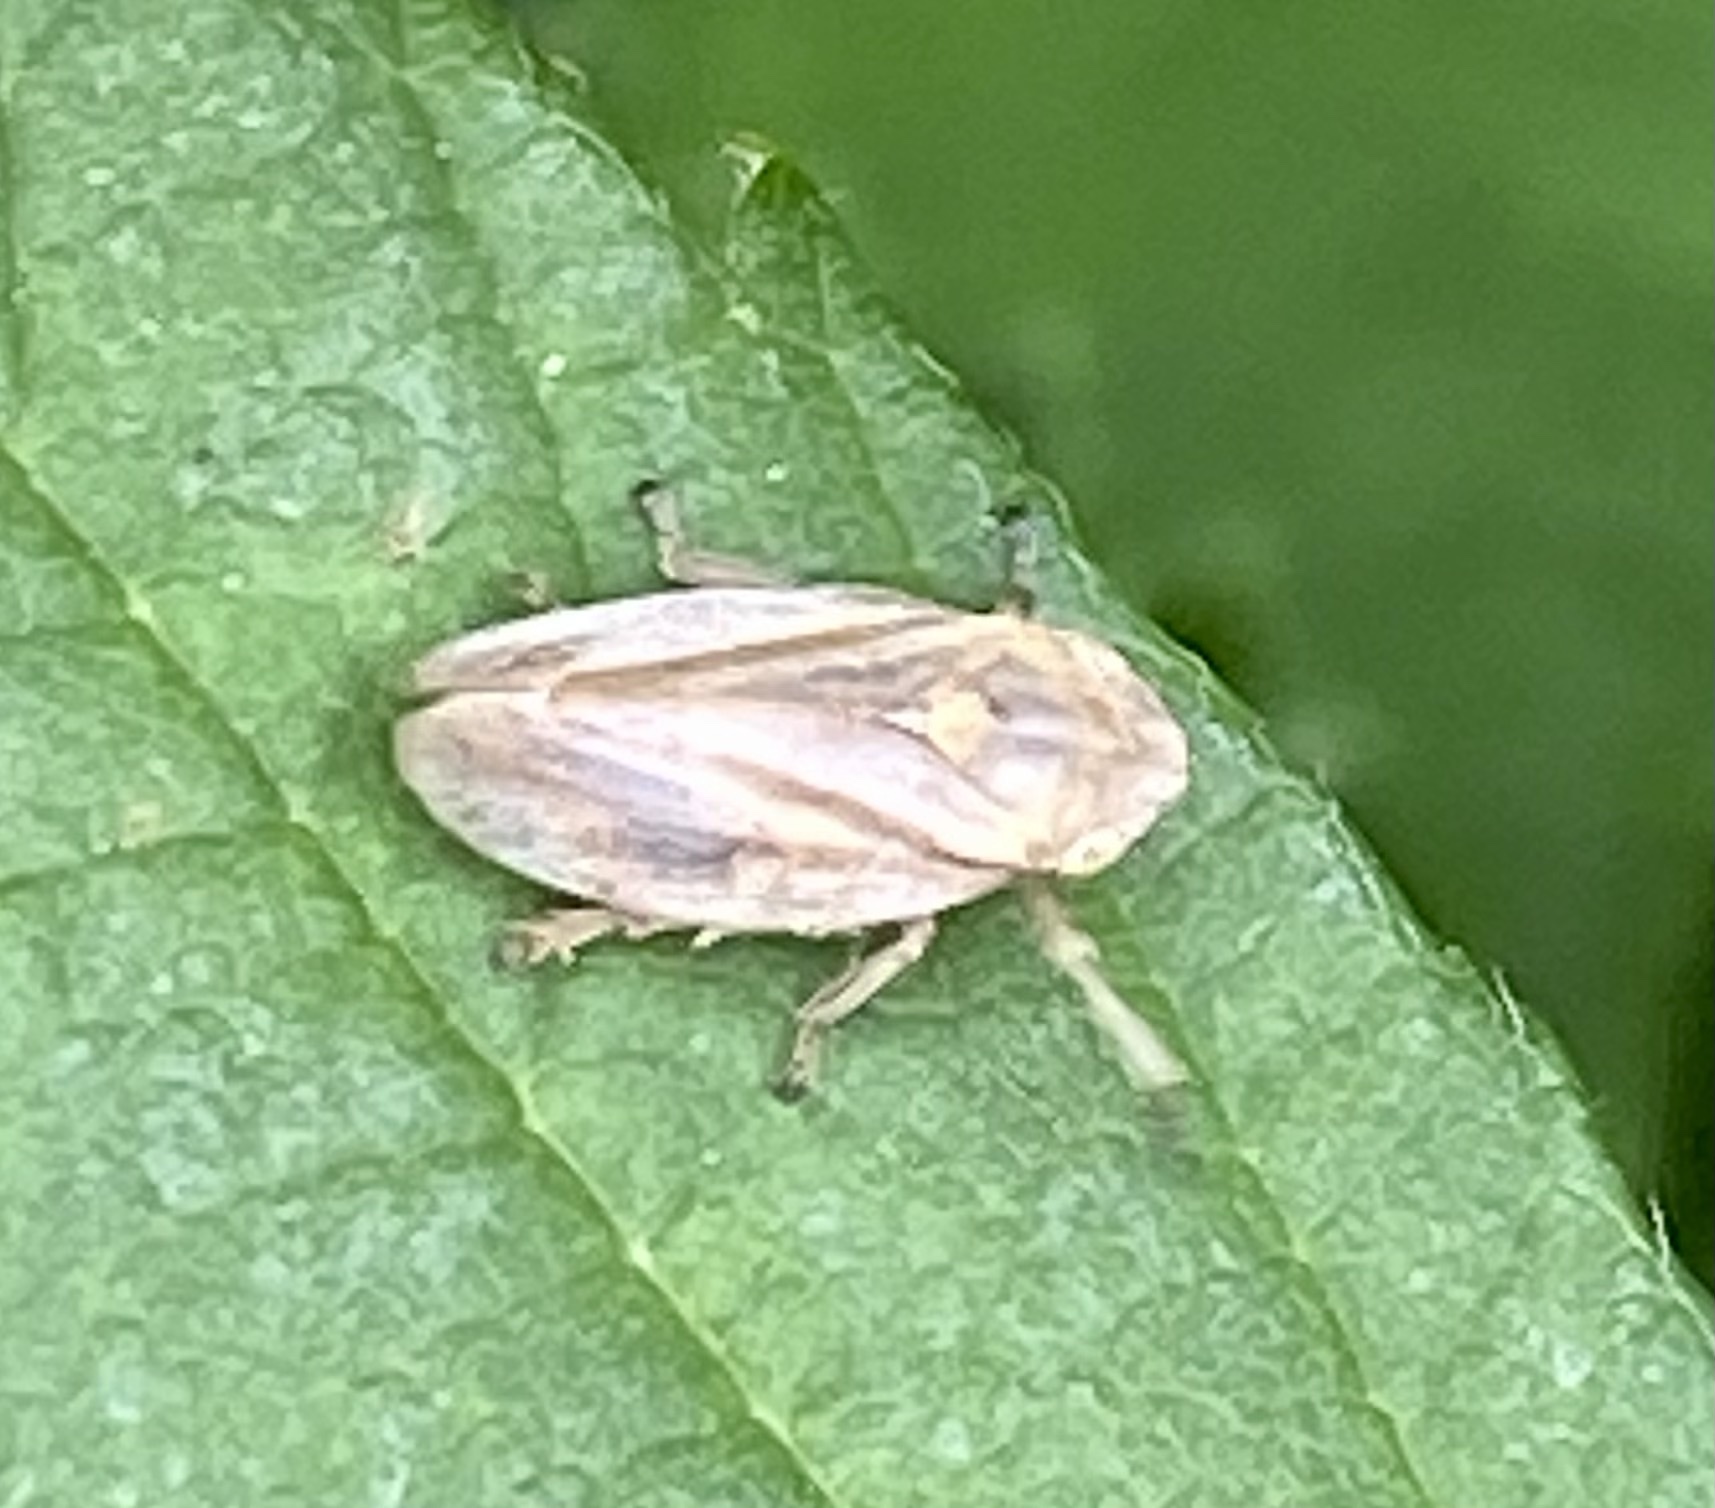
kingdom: Animalia
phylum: Arthropoda
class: Insecta
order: Hemiptera
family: Aphrophoridae
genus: Philaenus
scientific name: Philaenus spumarius
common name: Meadow spittlebug
